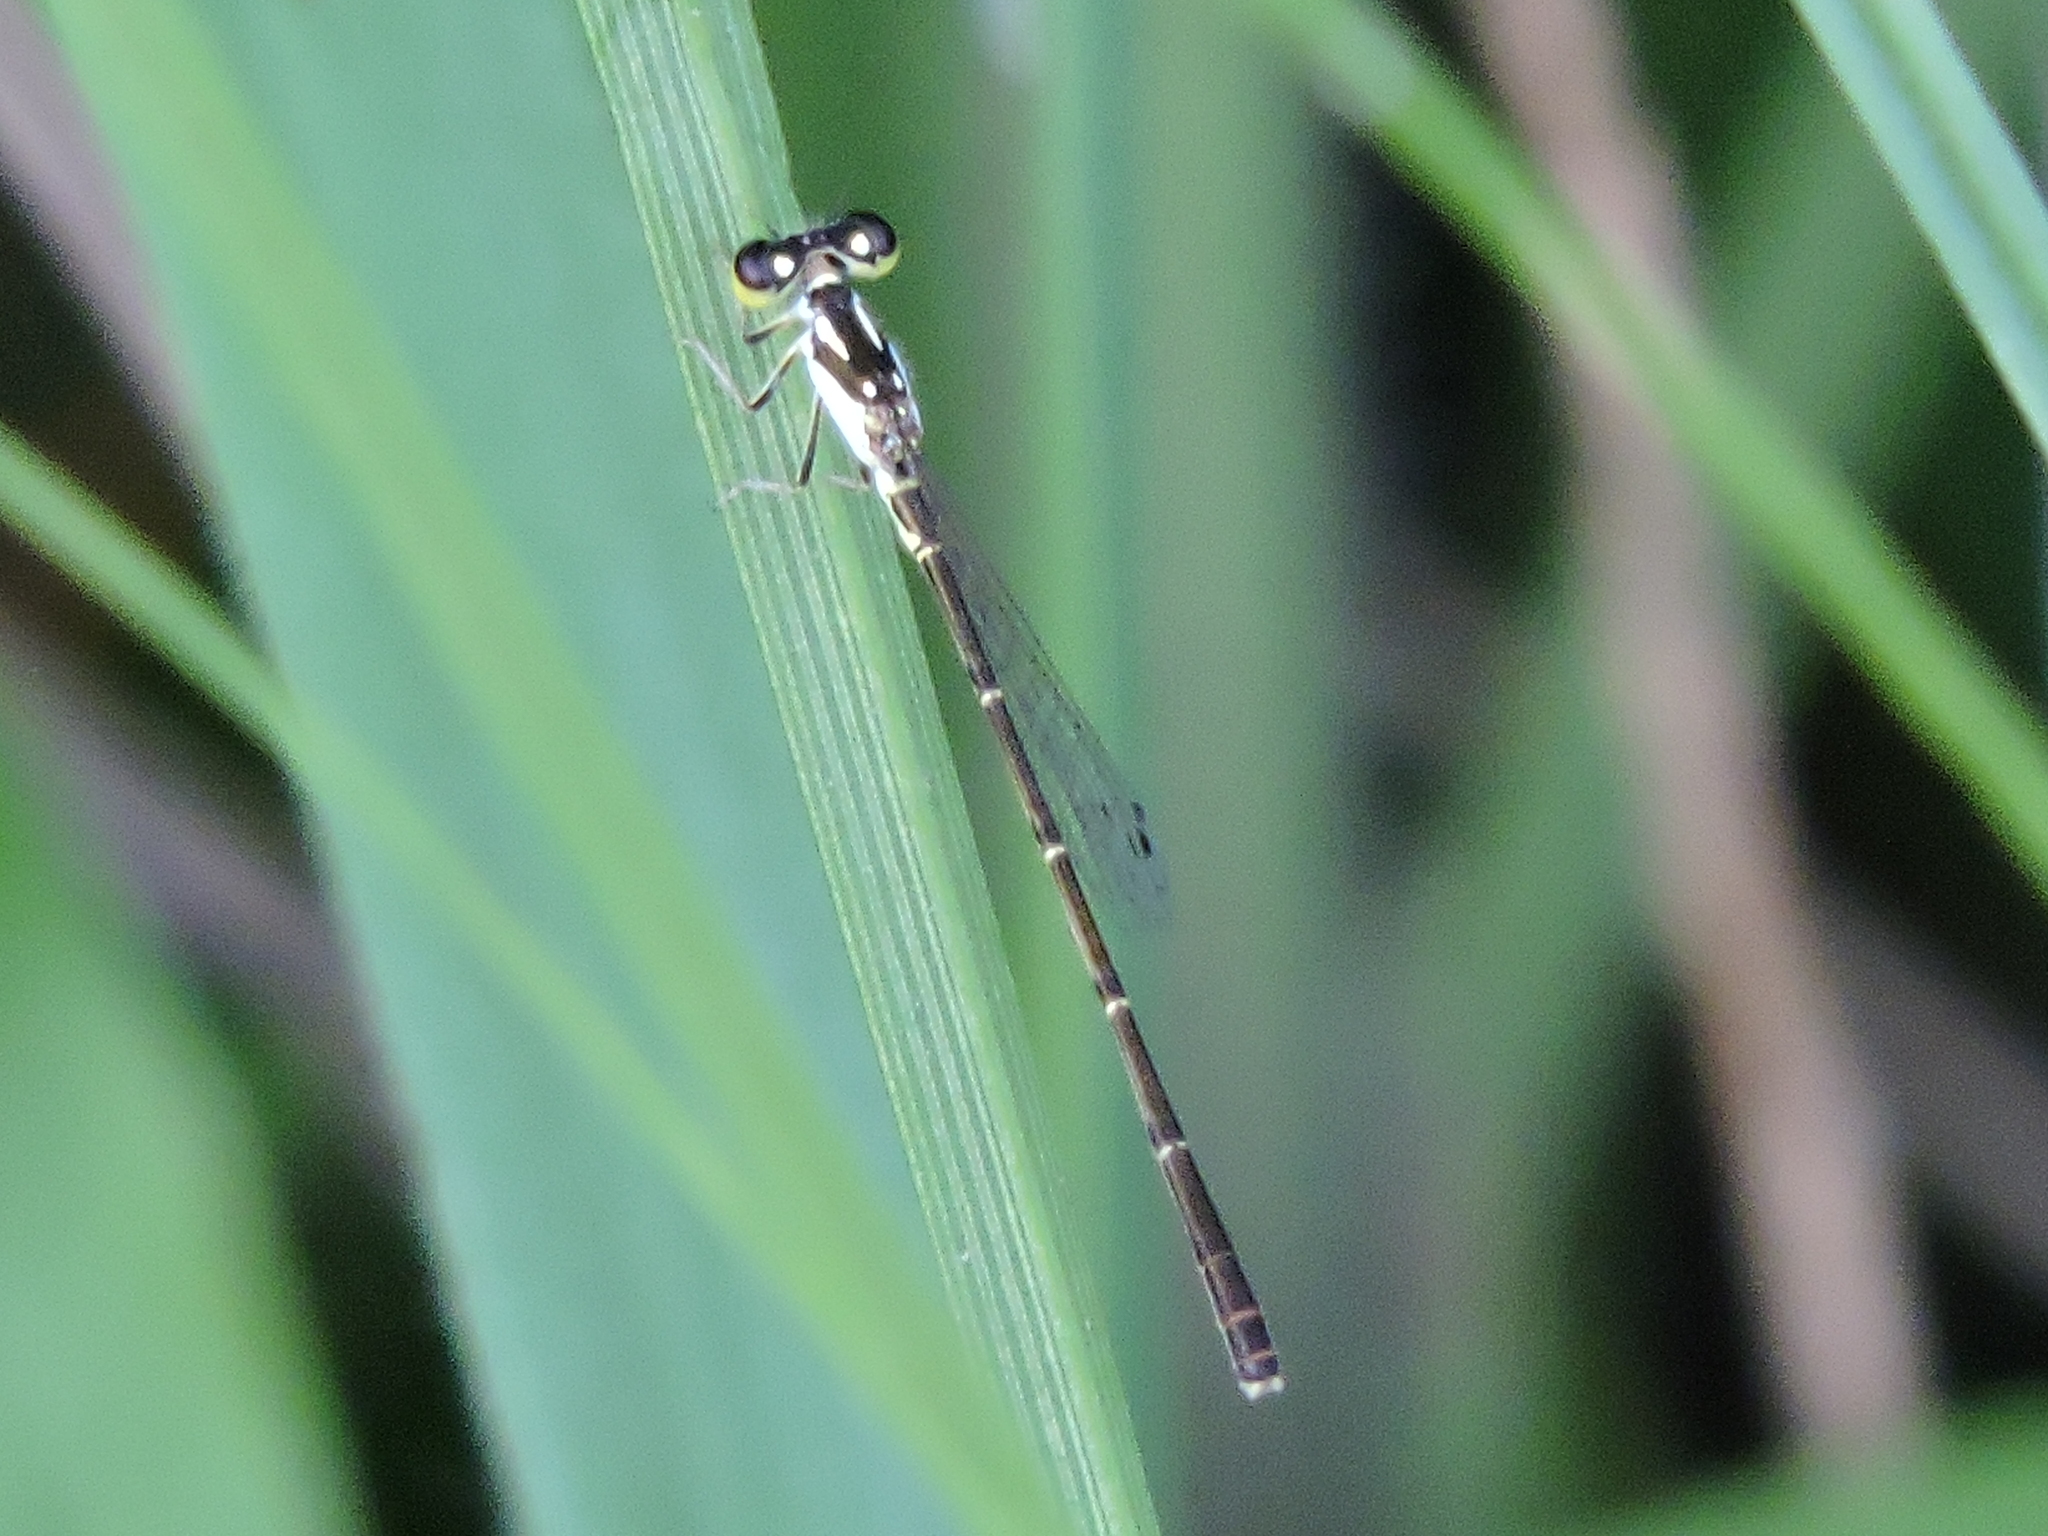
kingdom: Animalia
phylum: Arthropoda
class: Insecta
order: Odonata
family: Coenagrionidae
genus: Ischnura
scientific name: Ischnura posita
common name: Fragile forktail
